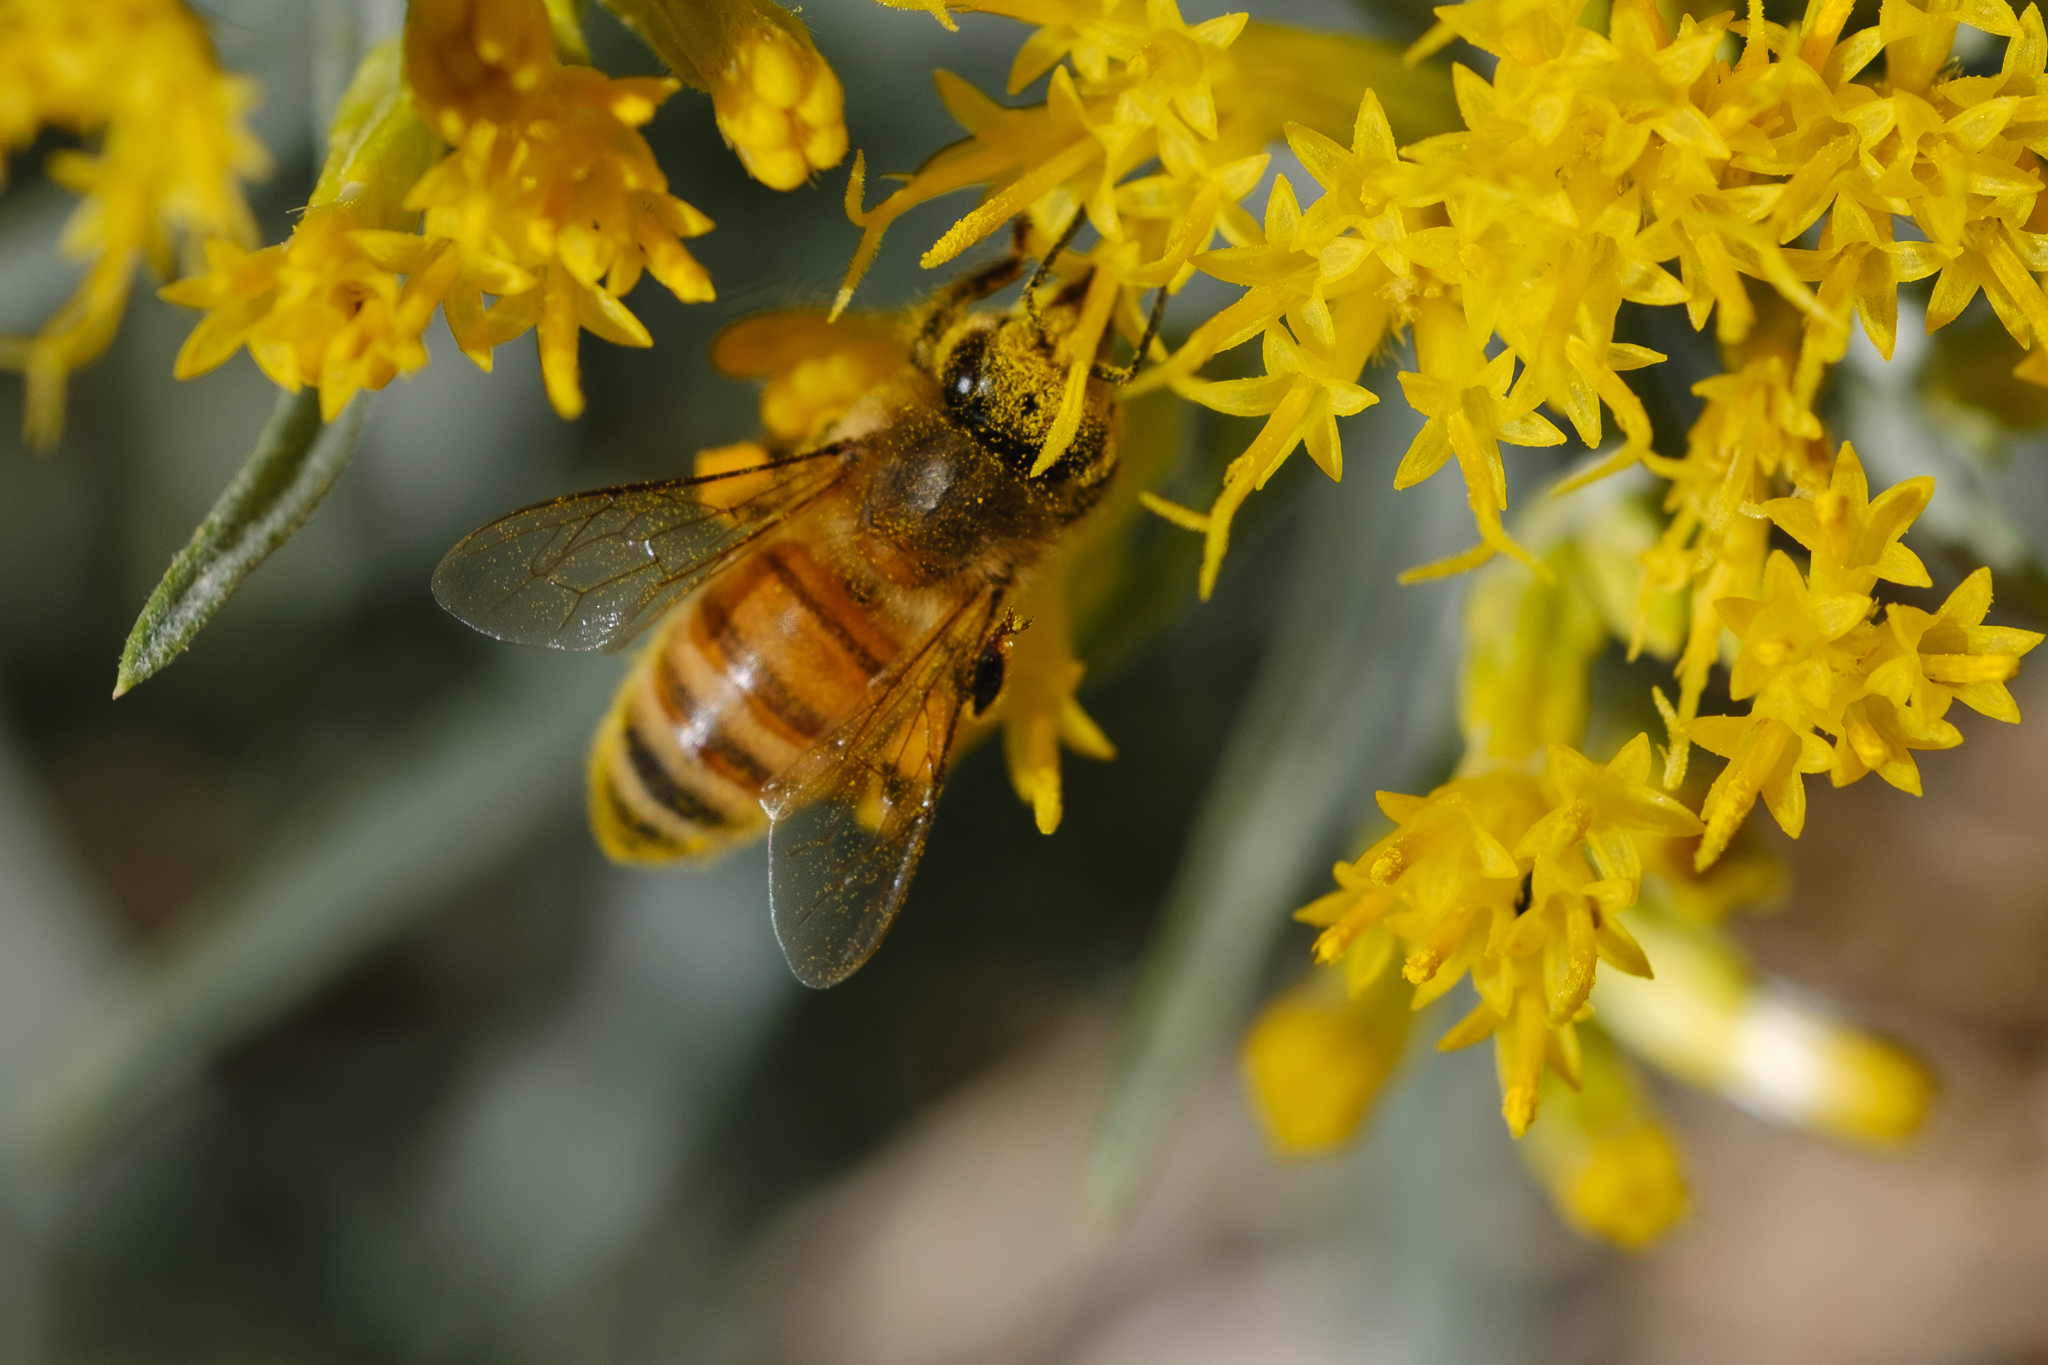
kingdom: Animalia
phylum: Arthropoda
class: Insecta
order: Hymenoptera
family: Apidae
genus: Apis
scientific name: Apis mellifera
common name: Honey bee
